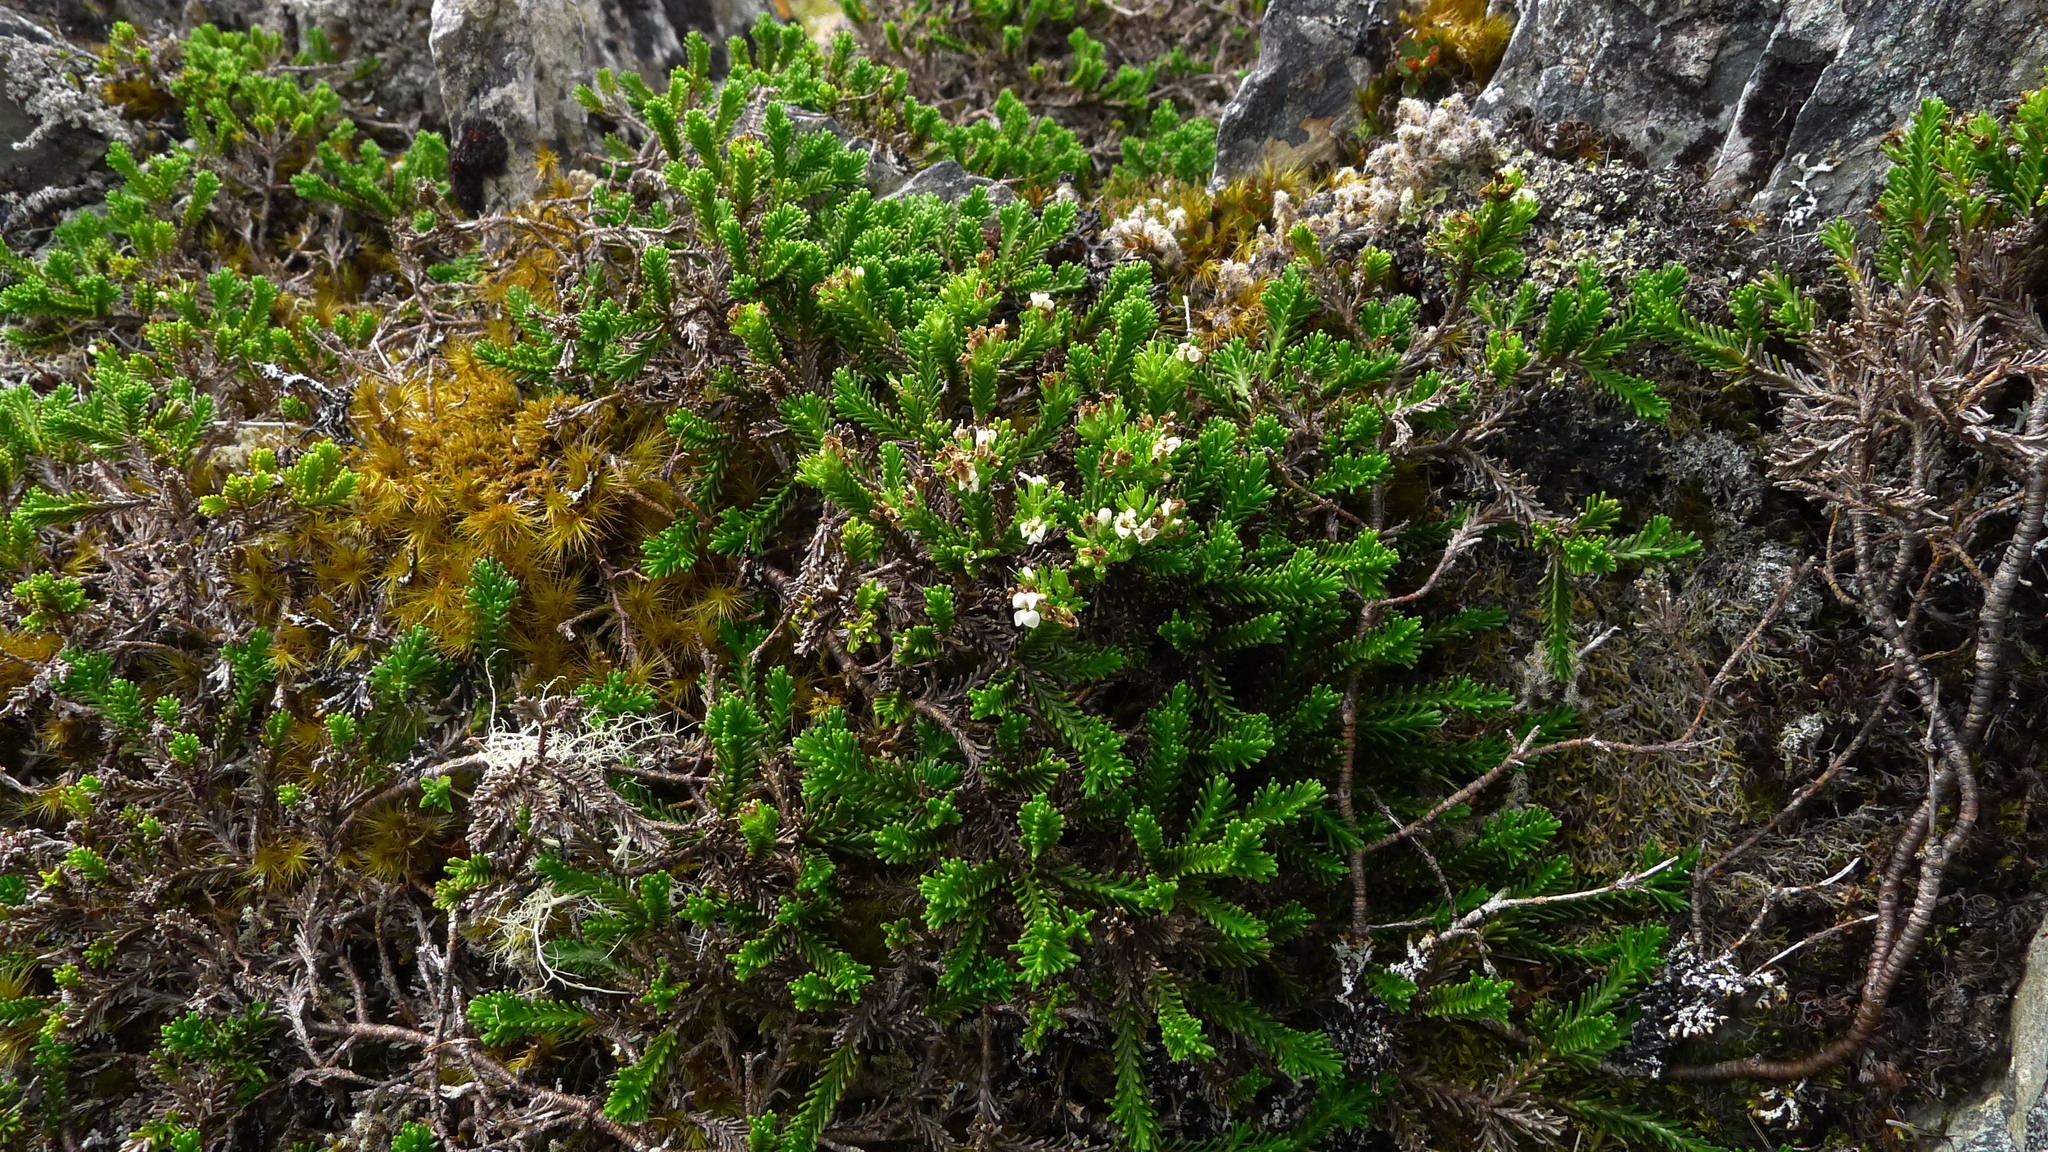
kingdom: Plantae
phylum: Tracheophyta
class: Magnoliopsida
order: Lamiales
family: Plantaginaceae
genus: Veronica
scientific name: Veronica hookeri
